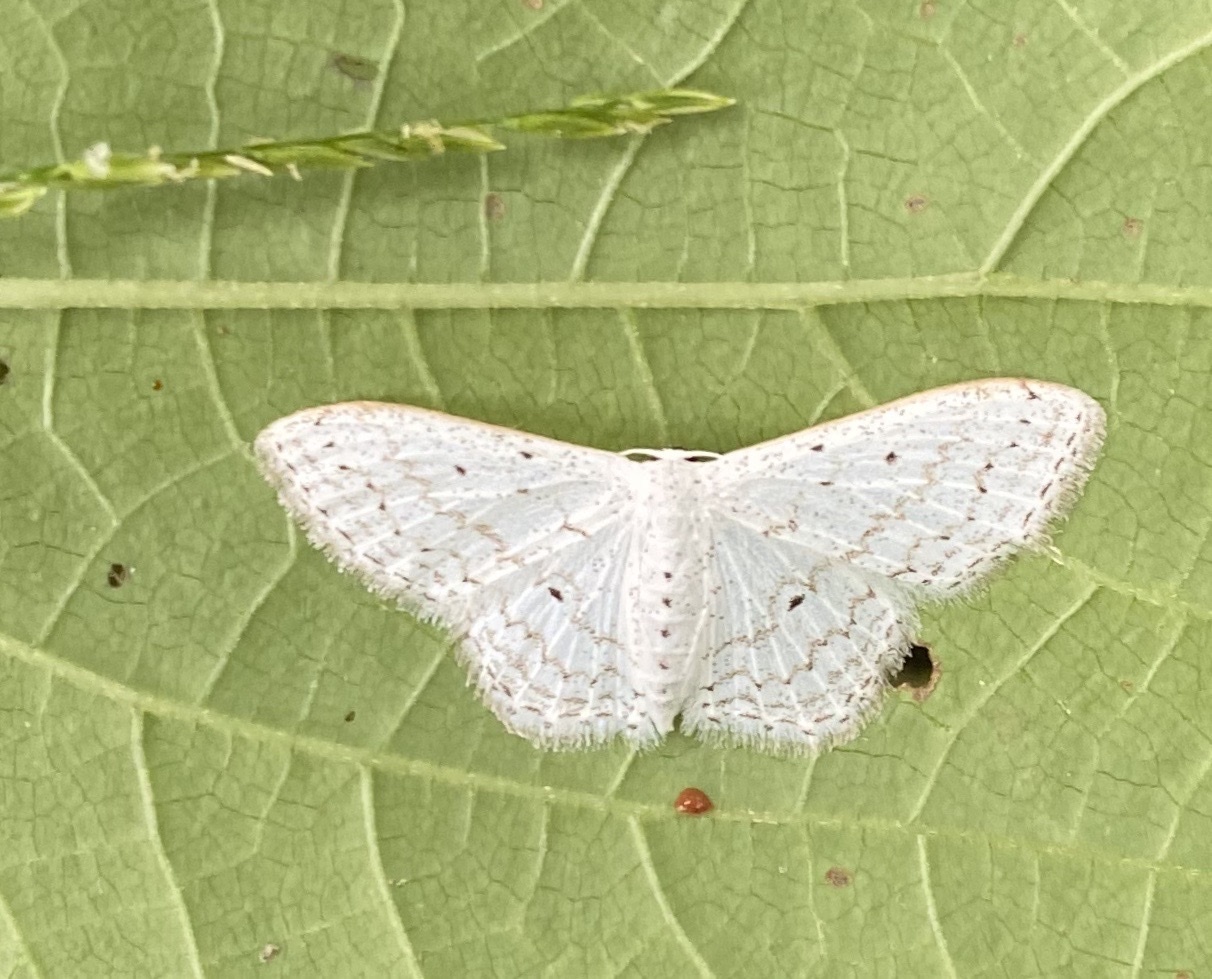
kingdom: Animalia
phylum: Arthropoda
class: Insecta
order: Lepidoptera
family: Geometridae
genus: Idaea
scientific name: Idaea tacturata
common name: Dot-lined wave
